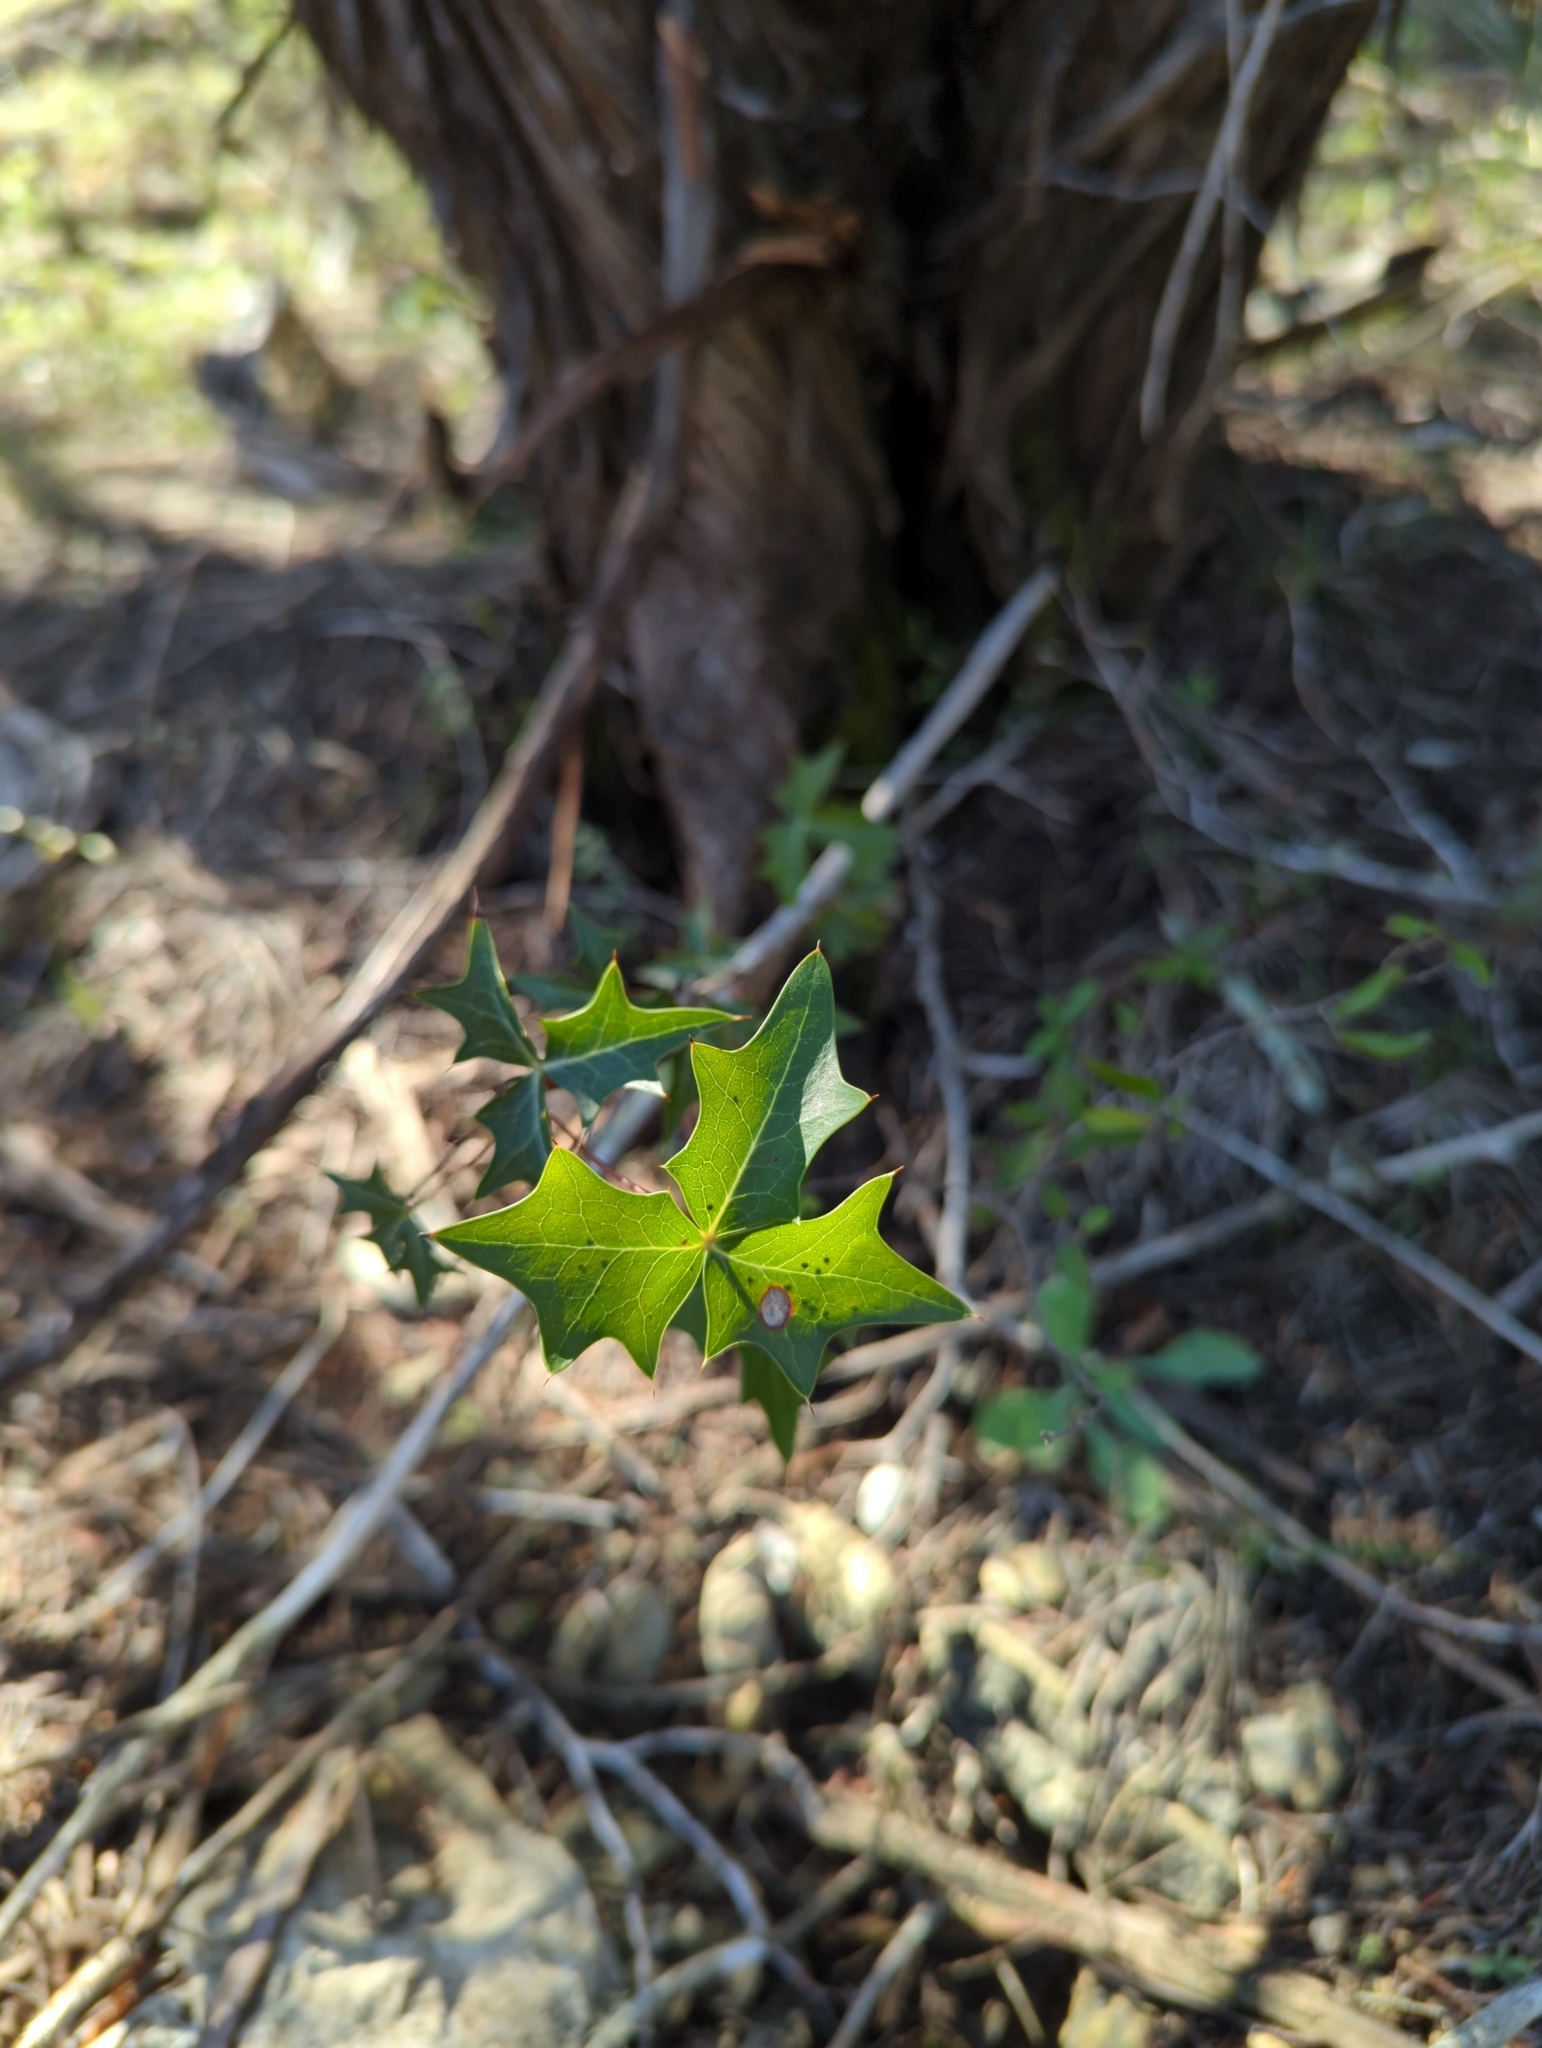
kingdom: Plantae
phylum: Tracheophyta
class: Magnoliopsida
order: Ranunculales
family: Berberidaceae
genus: Alloberberis
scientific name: Alloberberis trifoliolata
